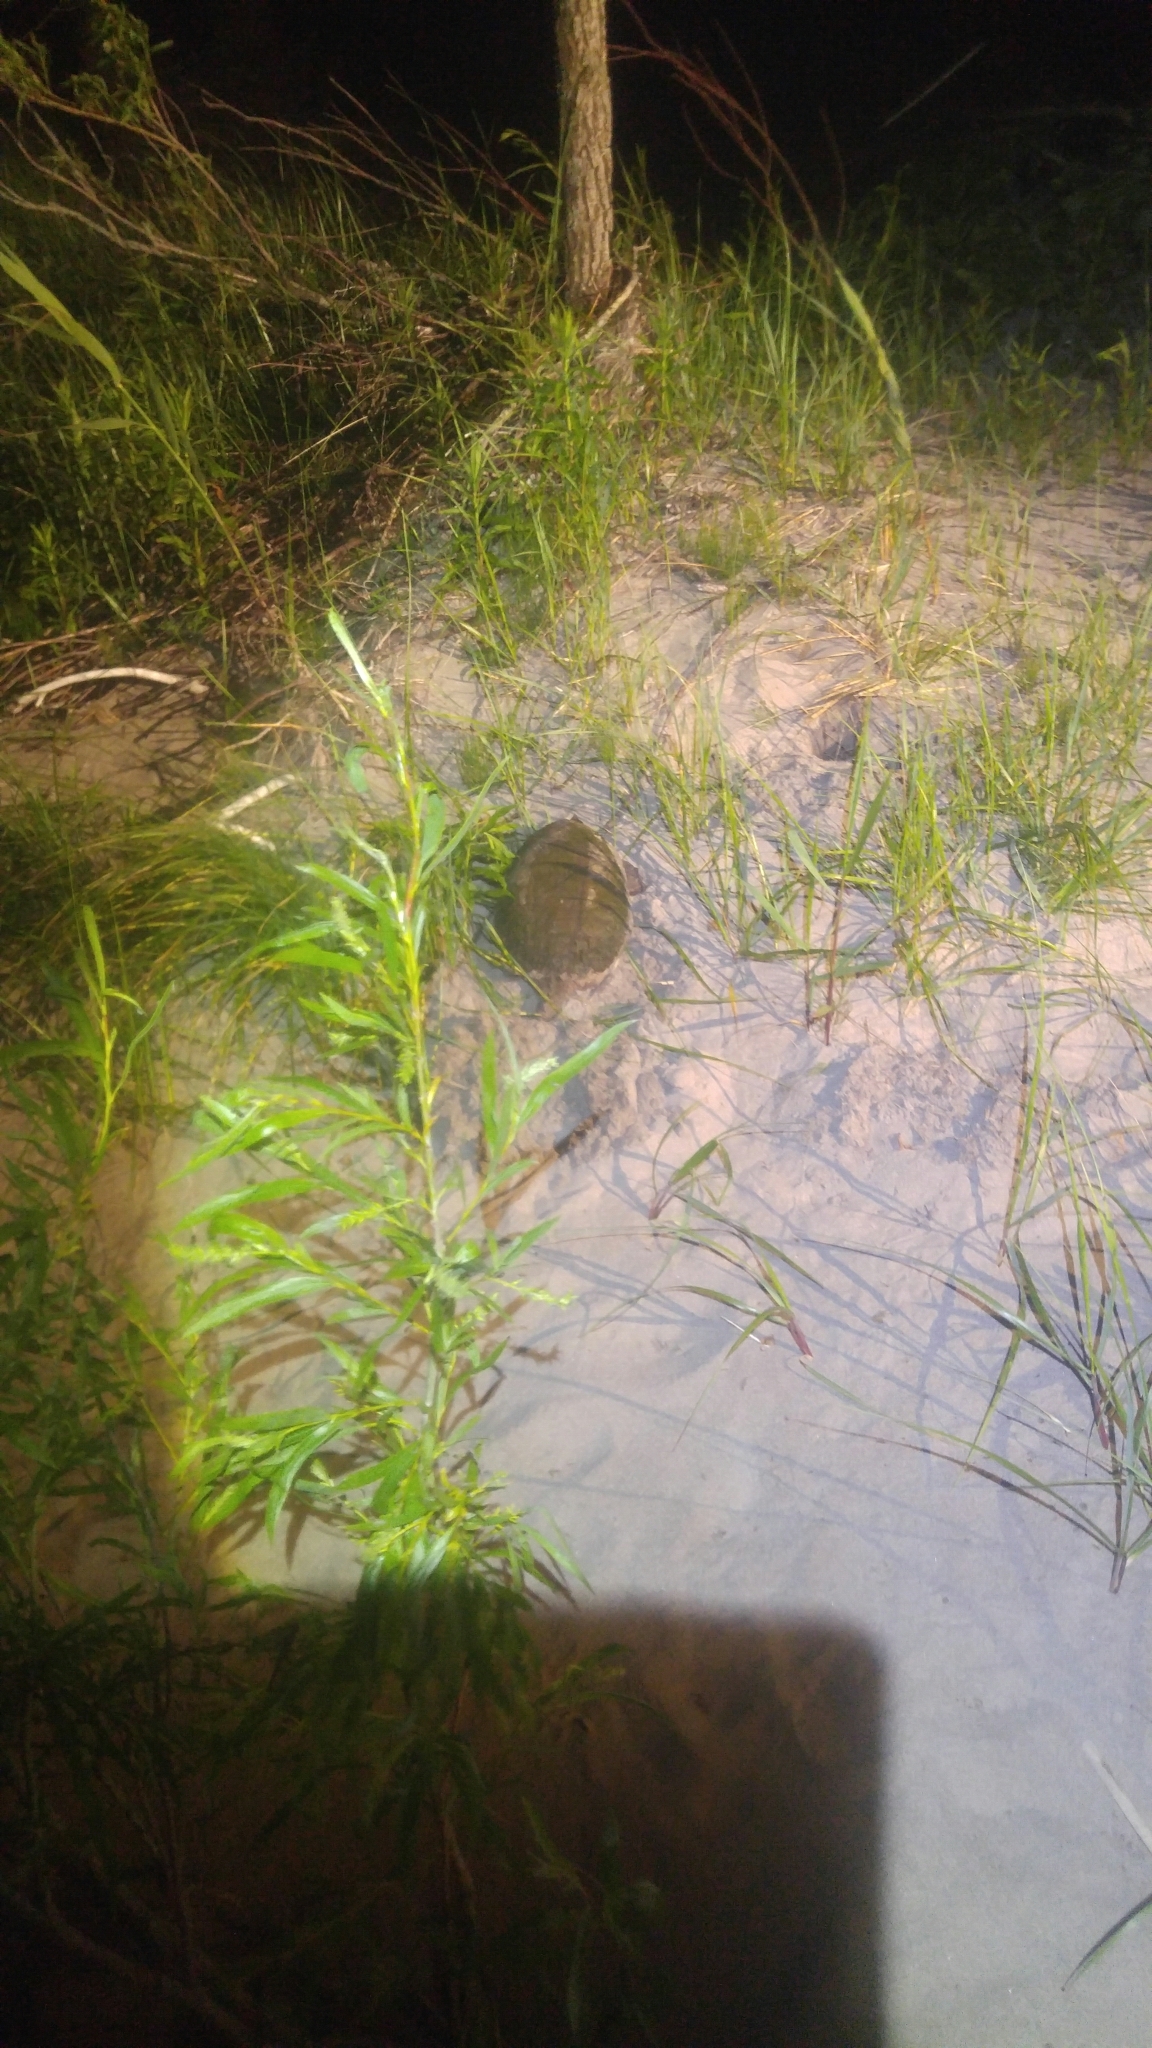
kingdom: Animalia
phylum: Chordata
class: Testudines
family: Chelydridae
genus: Chelydra
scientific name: Chelydra serpentina
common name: Common snapping turtle
